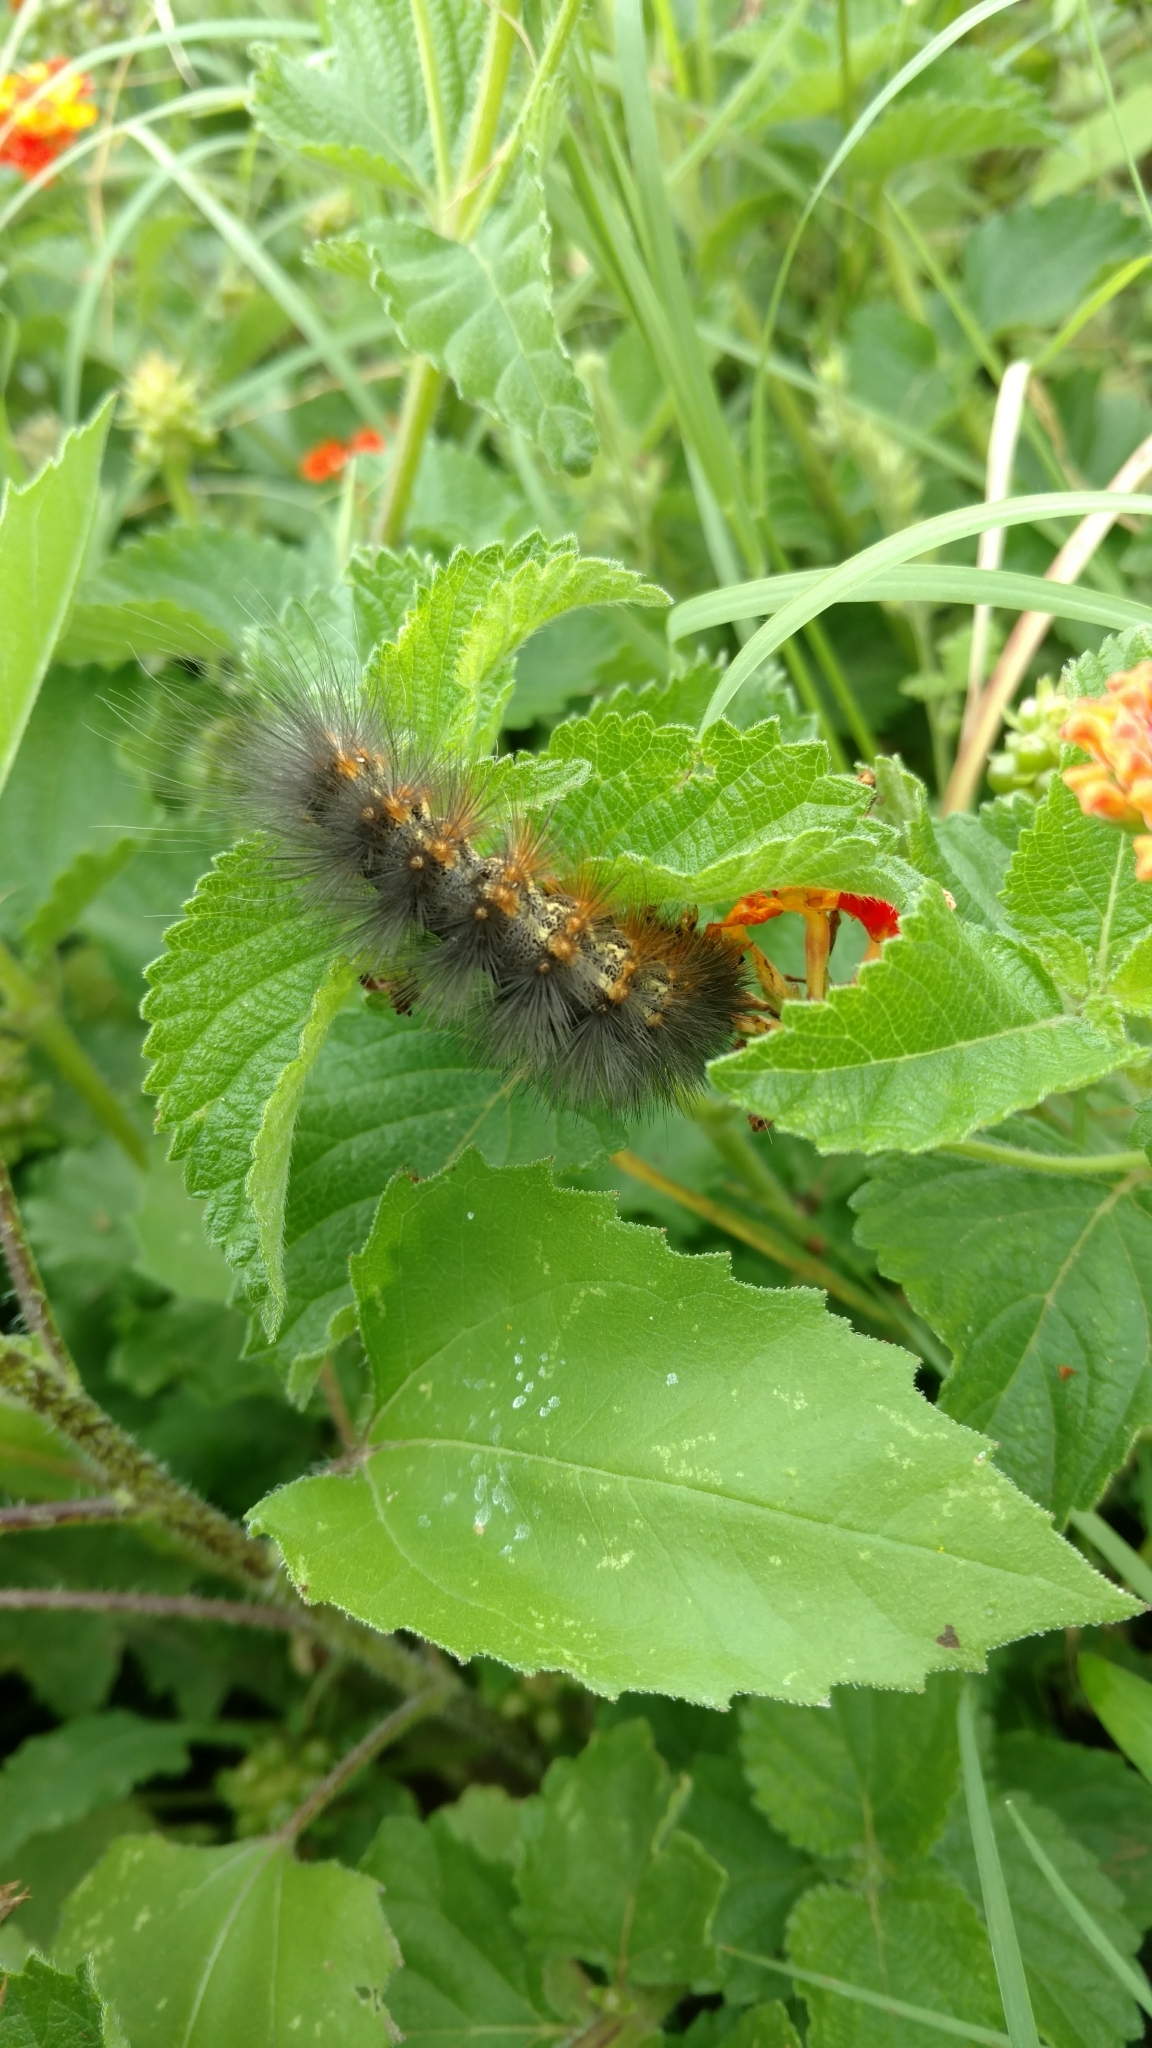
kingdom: Animalia
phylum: Arthropoda
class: Insecta
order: Lepidoptera
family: Erebidae
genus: Estigmene
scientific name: Estigmene acrea
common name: Salt marsh moth
